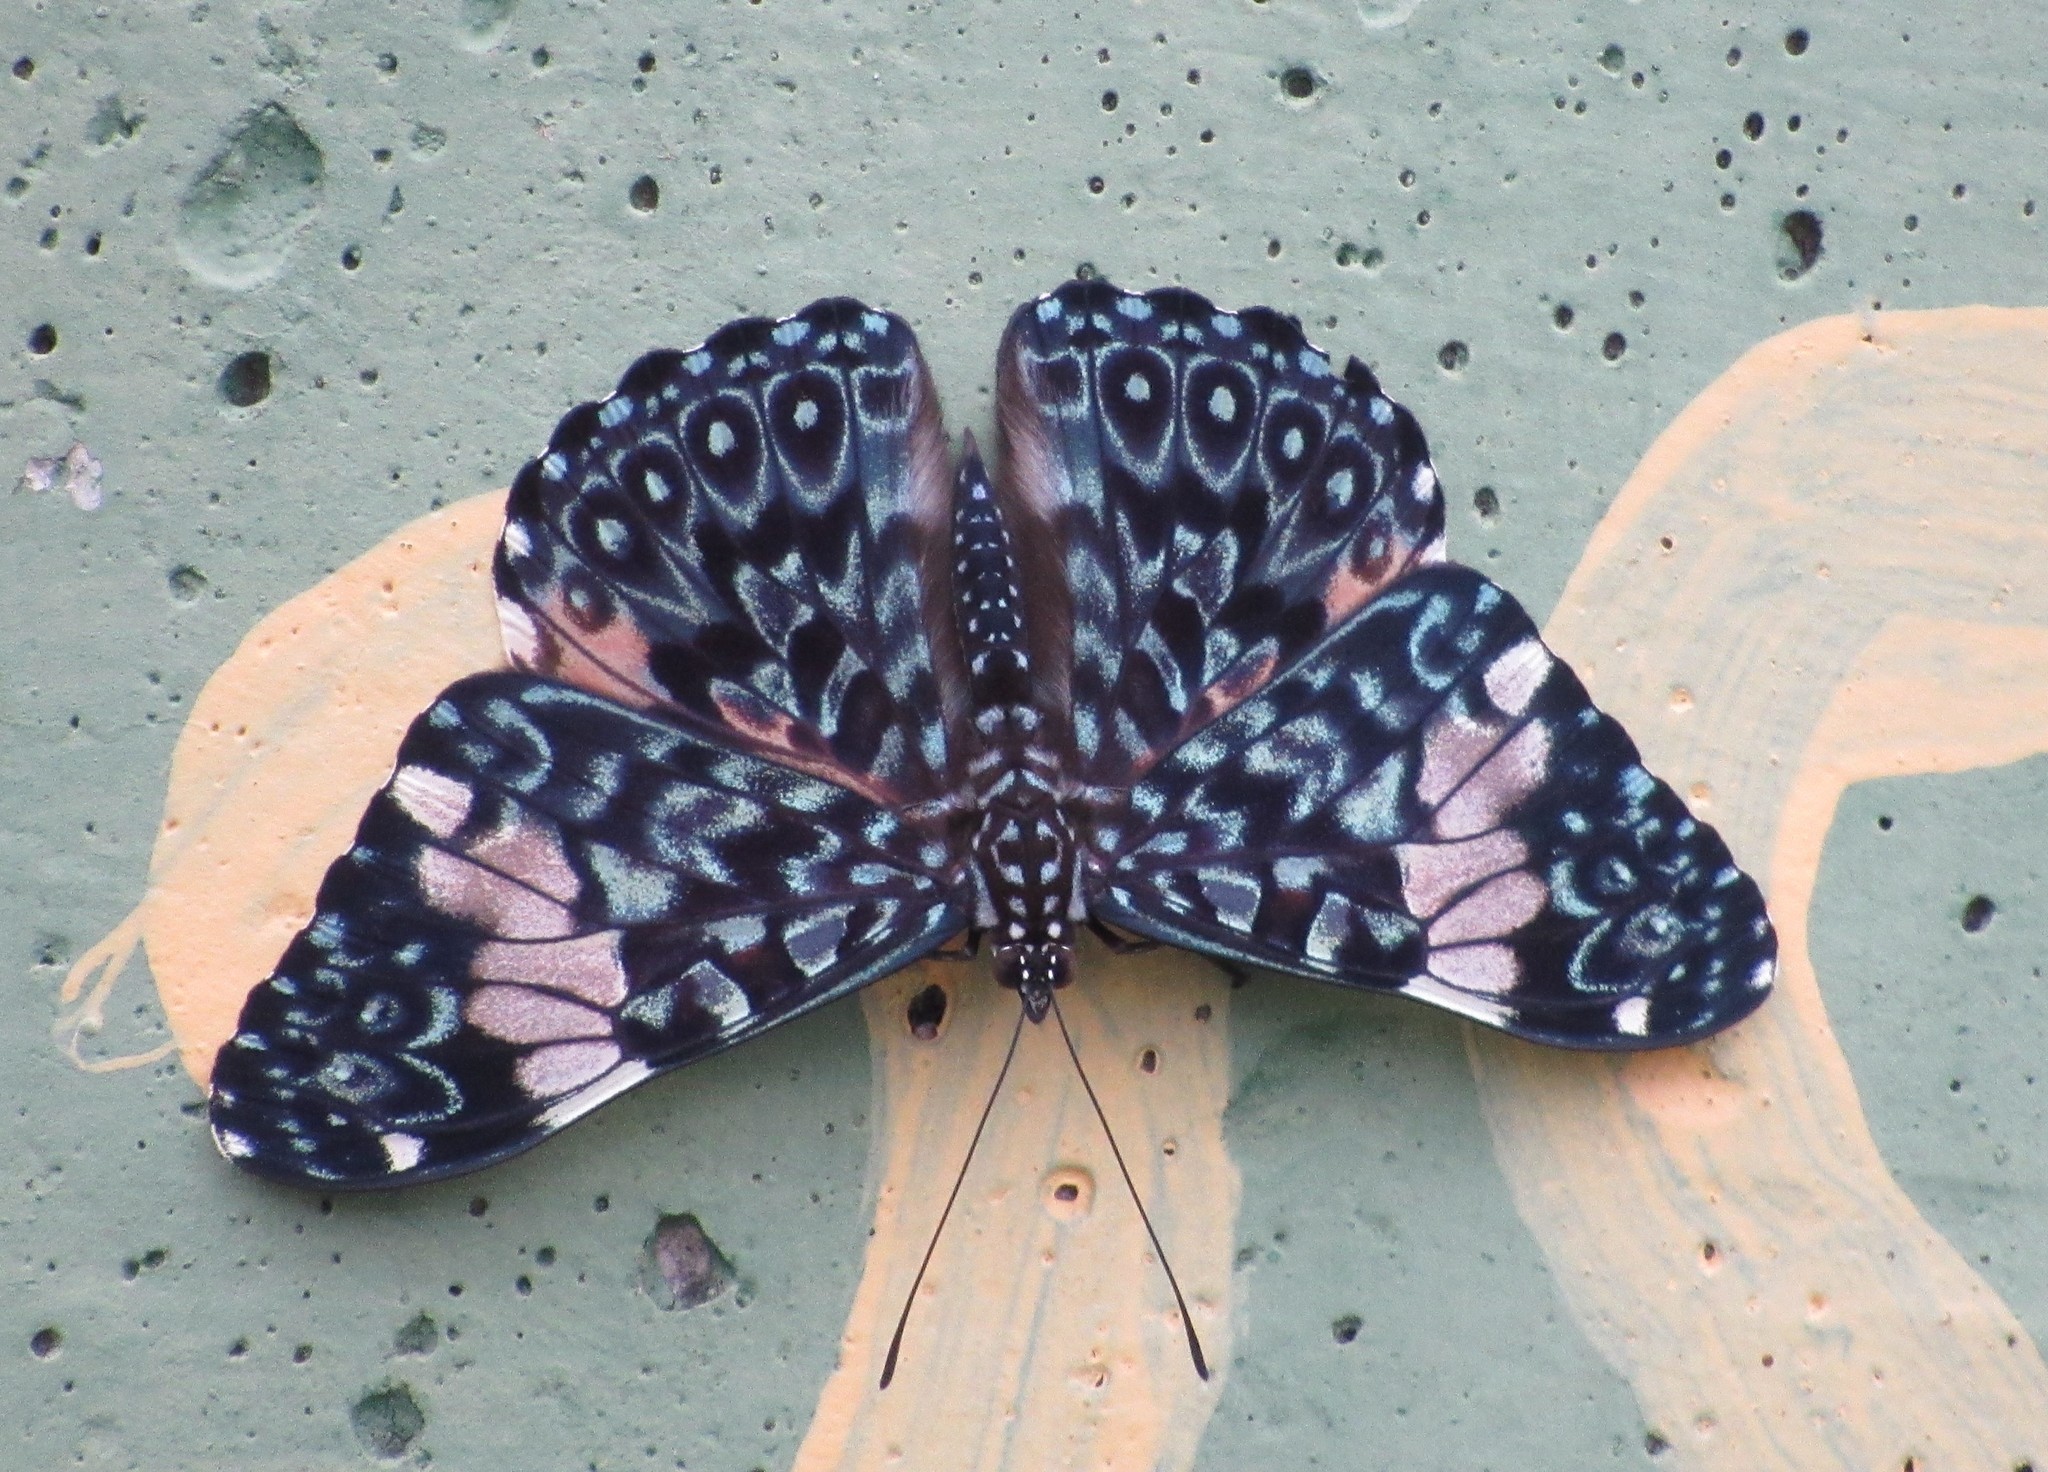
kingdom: Animalia
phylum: Arthropoda
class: Insecta
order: Lepidoptera
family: Nymphalidae
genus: Hamadryas
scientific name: Hamadryas amphinome
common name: Red cracker
